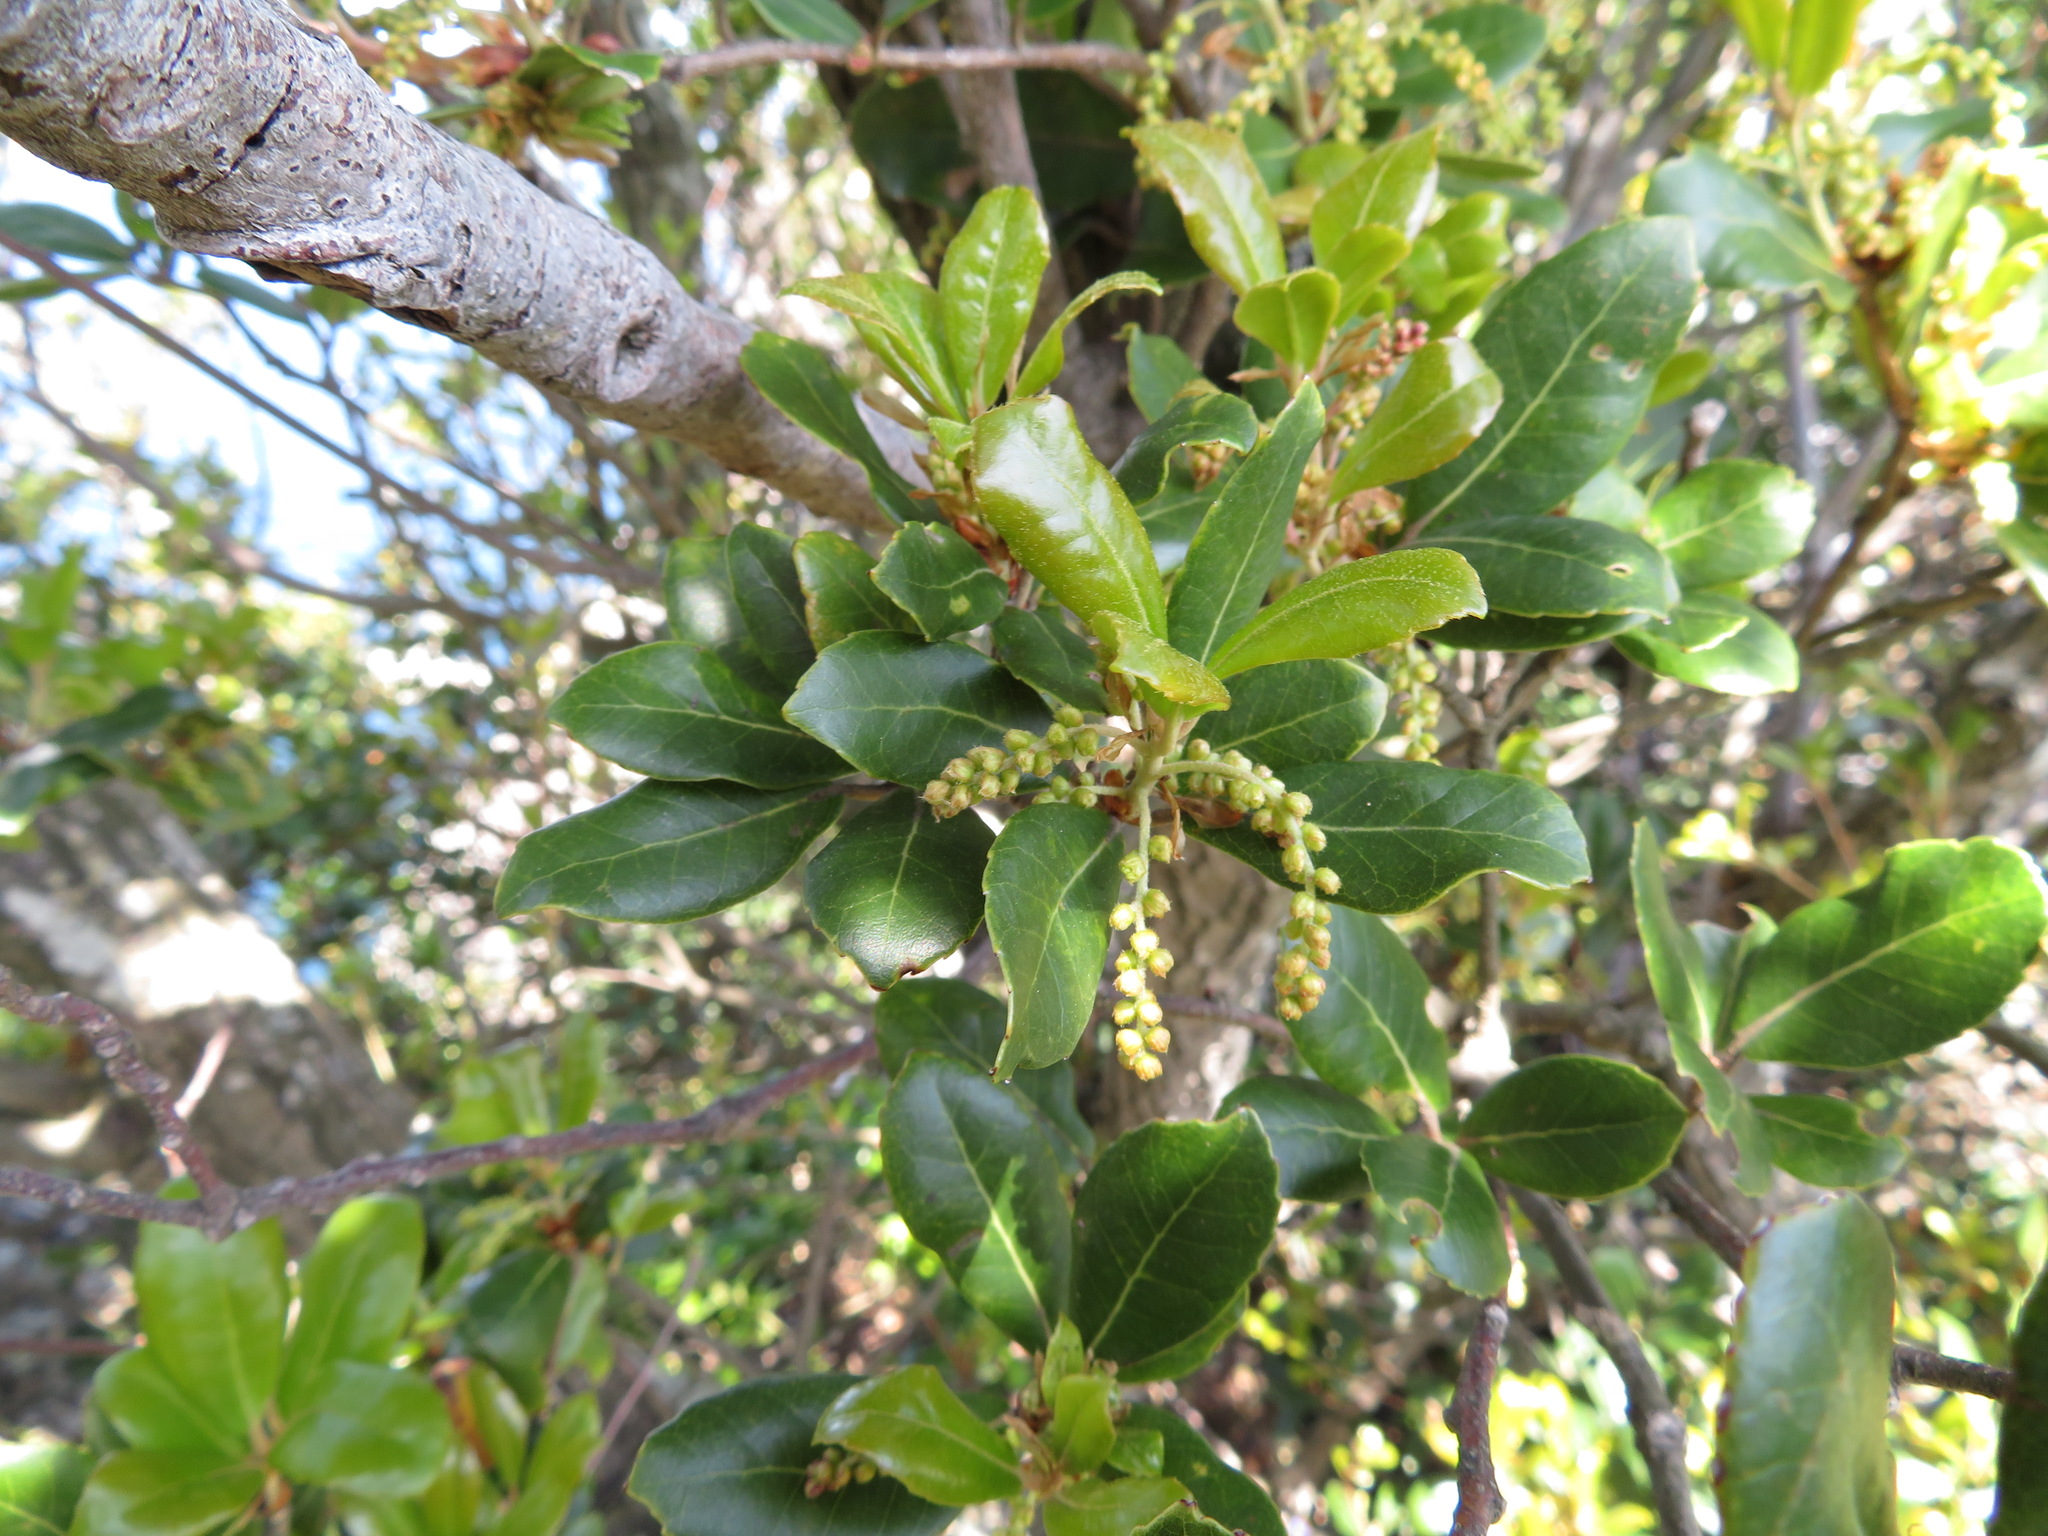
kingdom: Plantae
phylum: Tracheophyta
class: Magnoliopsida
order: Fagales
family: Fagaceae
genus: Quercus
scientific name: Quercus phillyreoides
